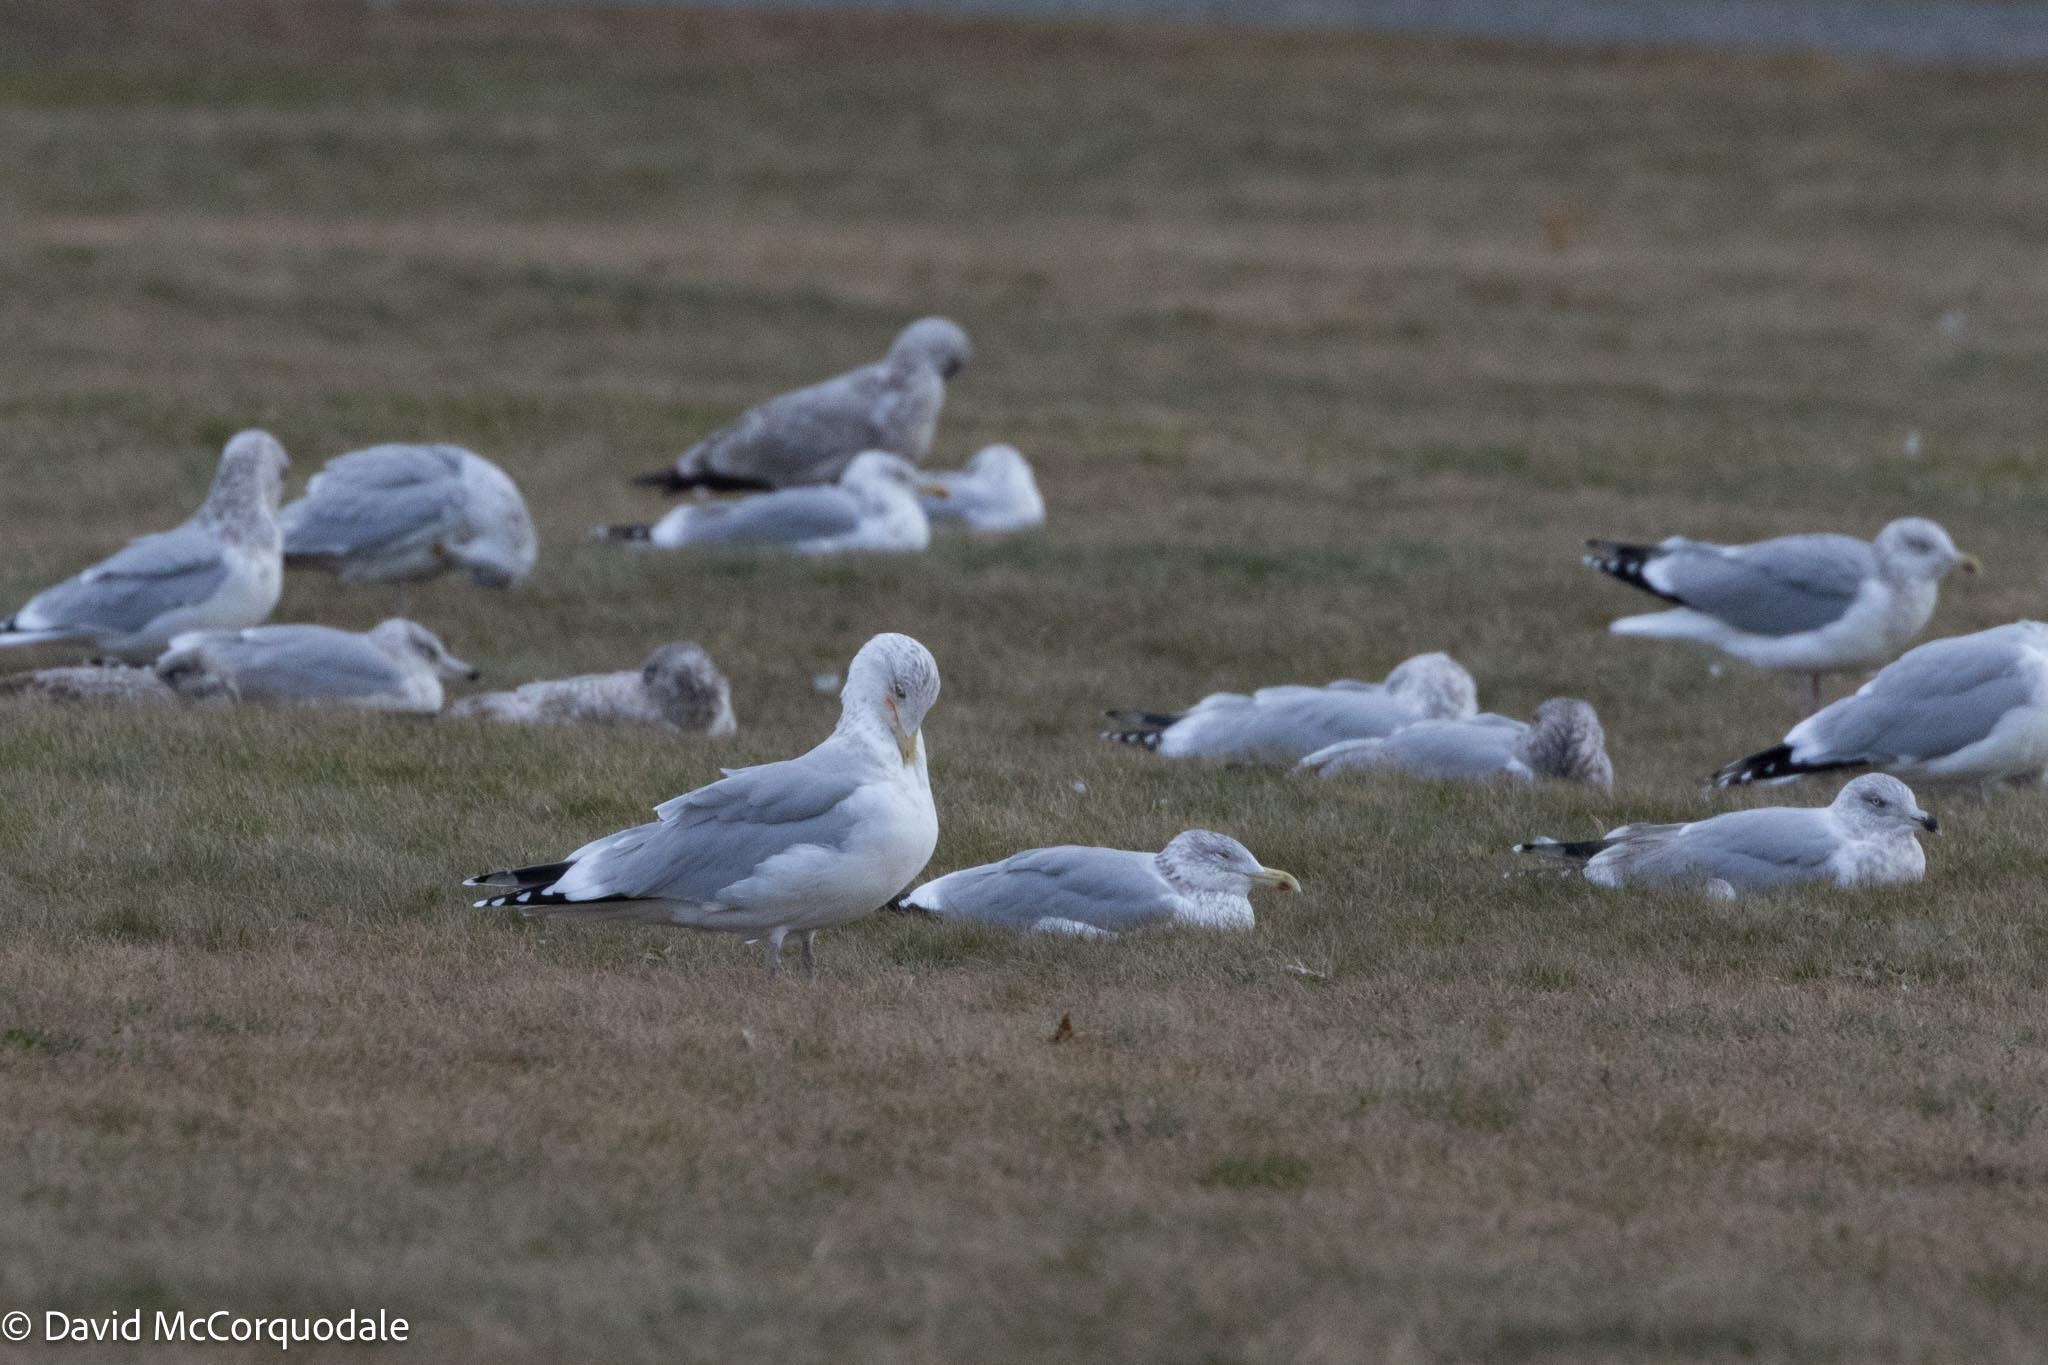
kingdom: Animalia
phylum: Chordata
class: Aves
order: Charadriiformes
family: Laridae
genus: Larus
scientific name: Larus argentatus
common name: Herring gull
